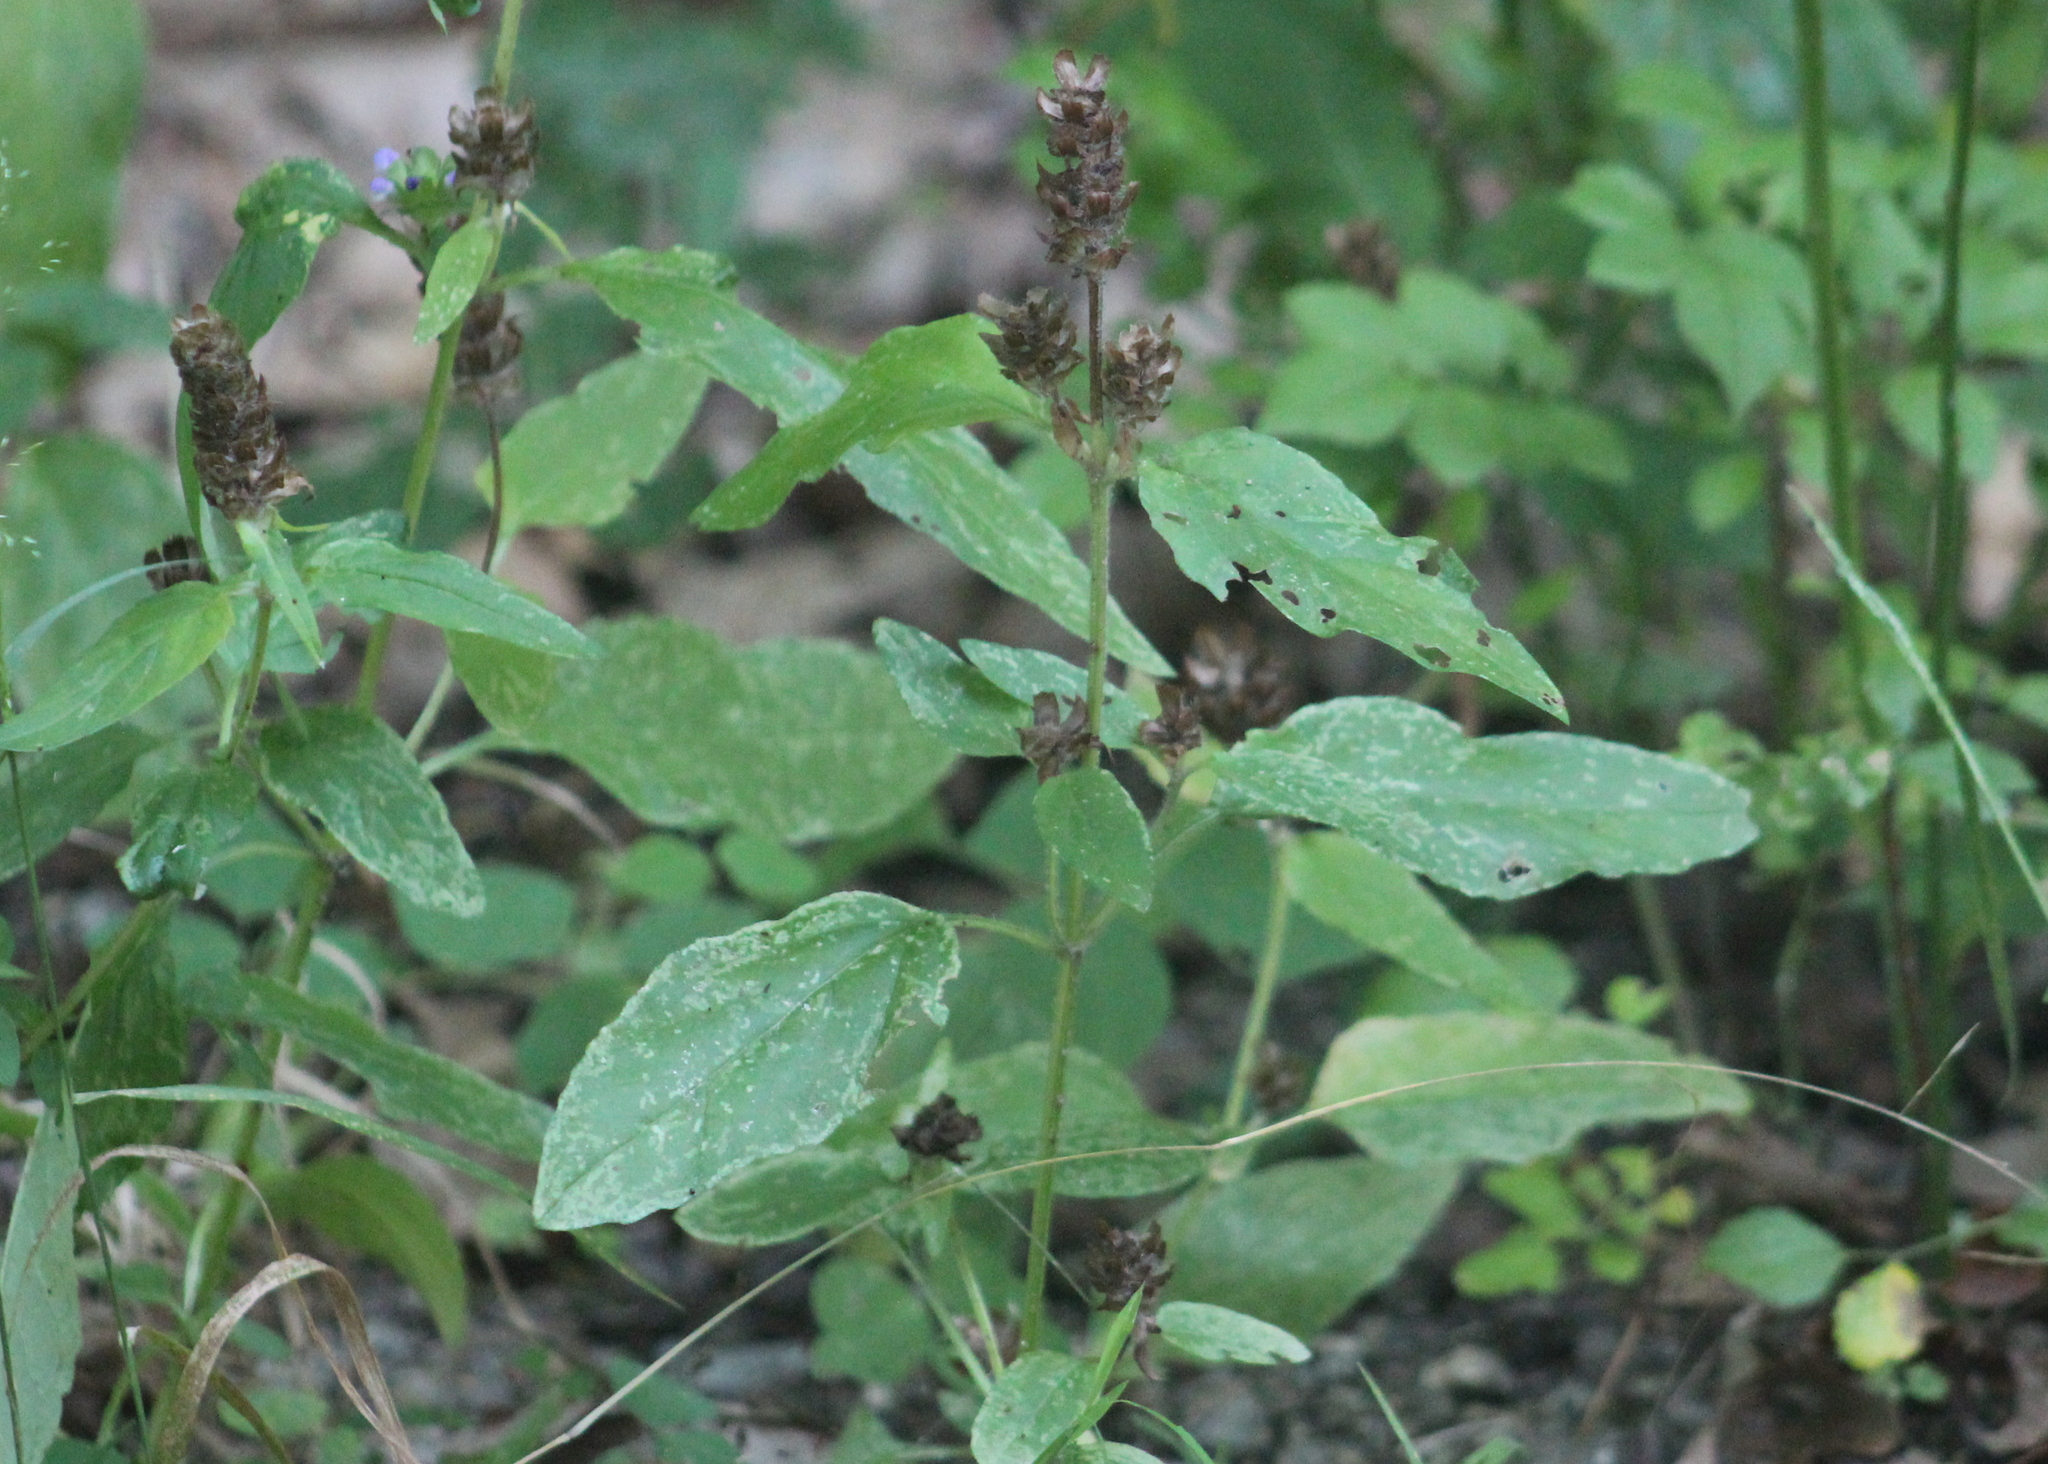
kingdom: Plantae
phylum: Tracheophyta
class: Magnoliopsida
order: Lamiales
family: Lamiaceae
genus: Prunella
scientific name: Prunella vulgaris
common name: Heal-all
